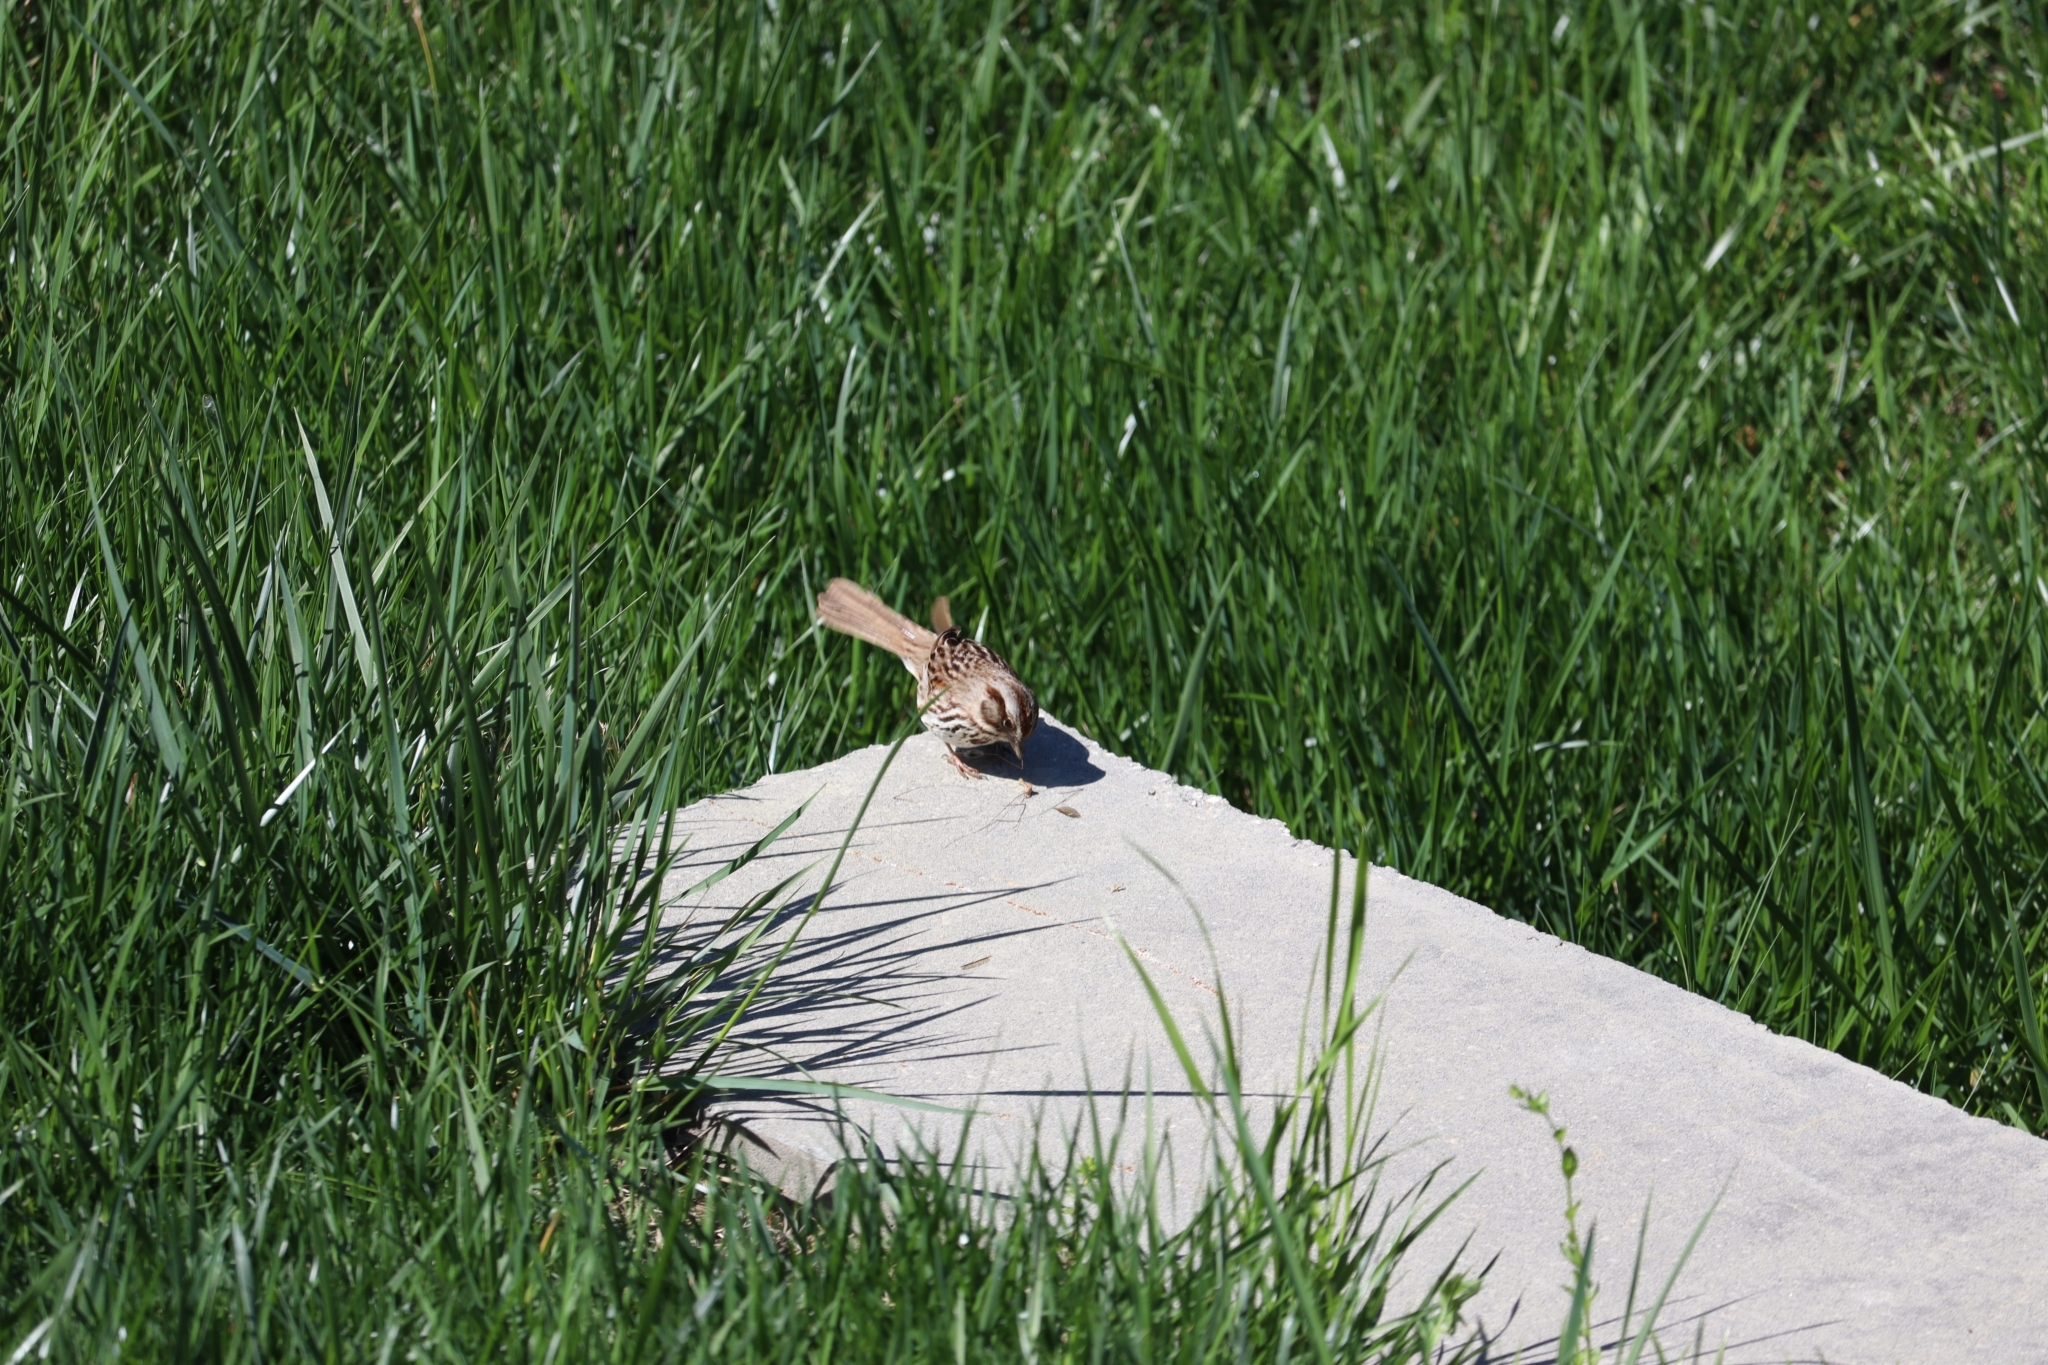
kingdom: Animalia
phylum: Chordata
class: Aves
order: Passeriformes
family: Passerellidae
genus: Melospiza
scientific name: Melospiza melodia
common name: Song sparrow
